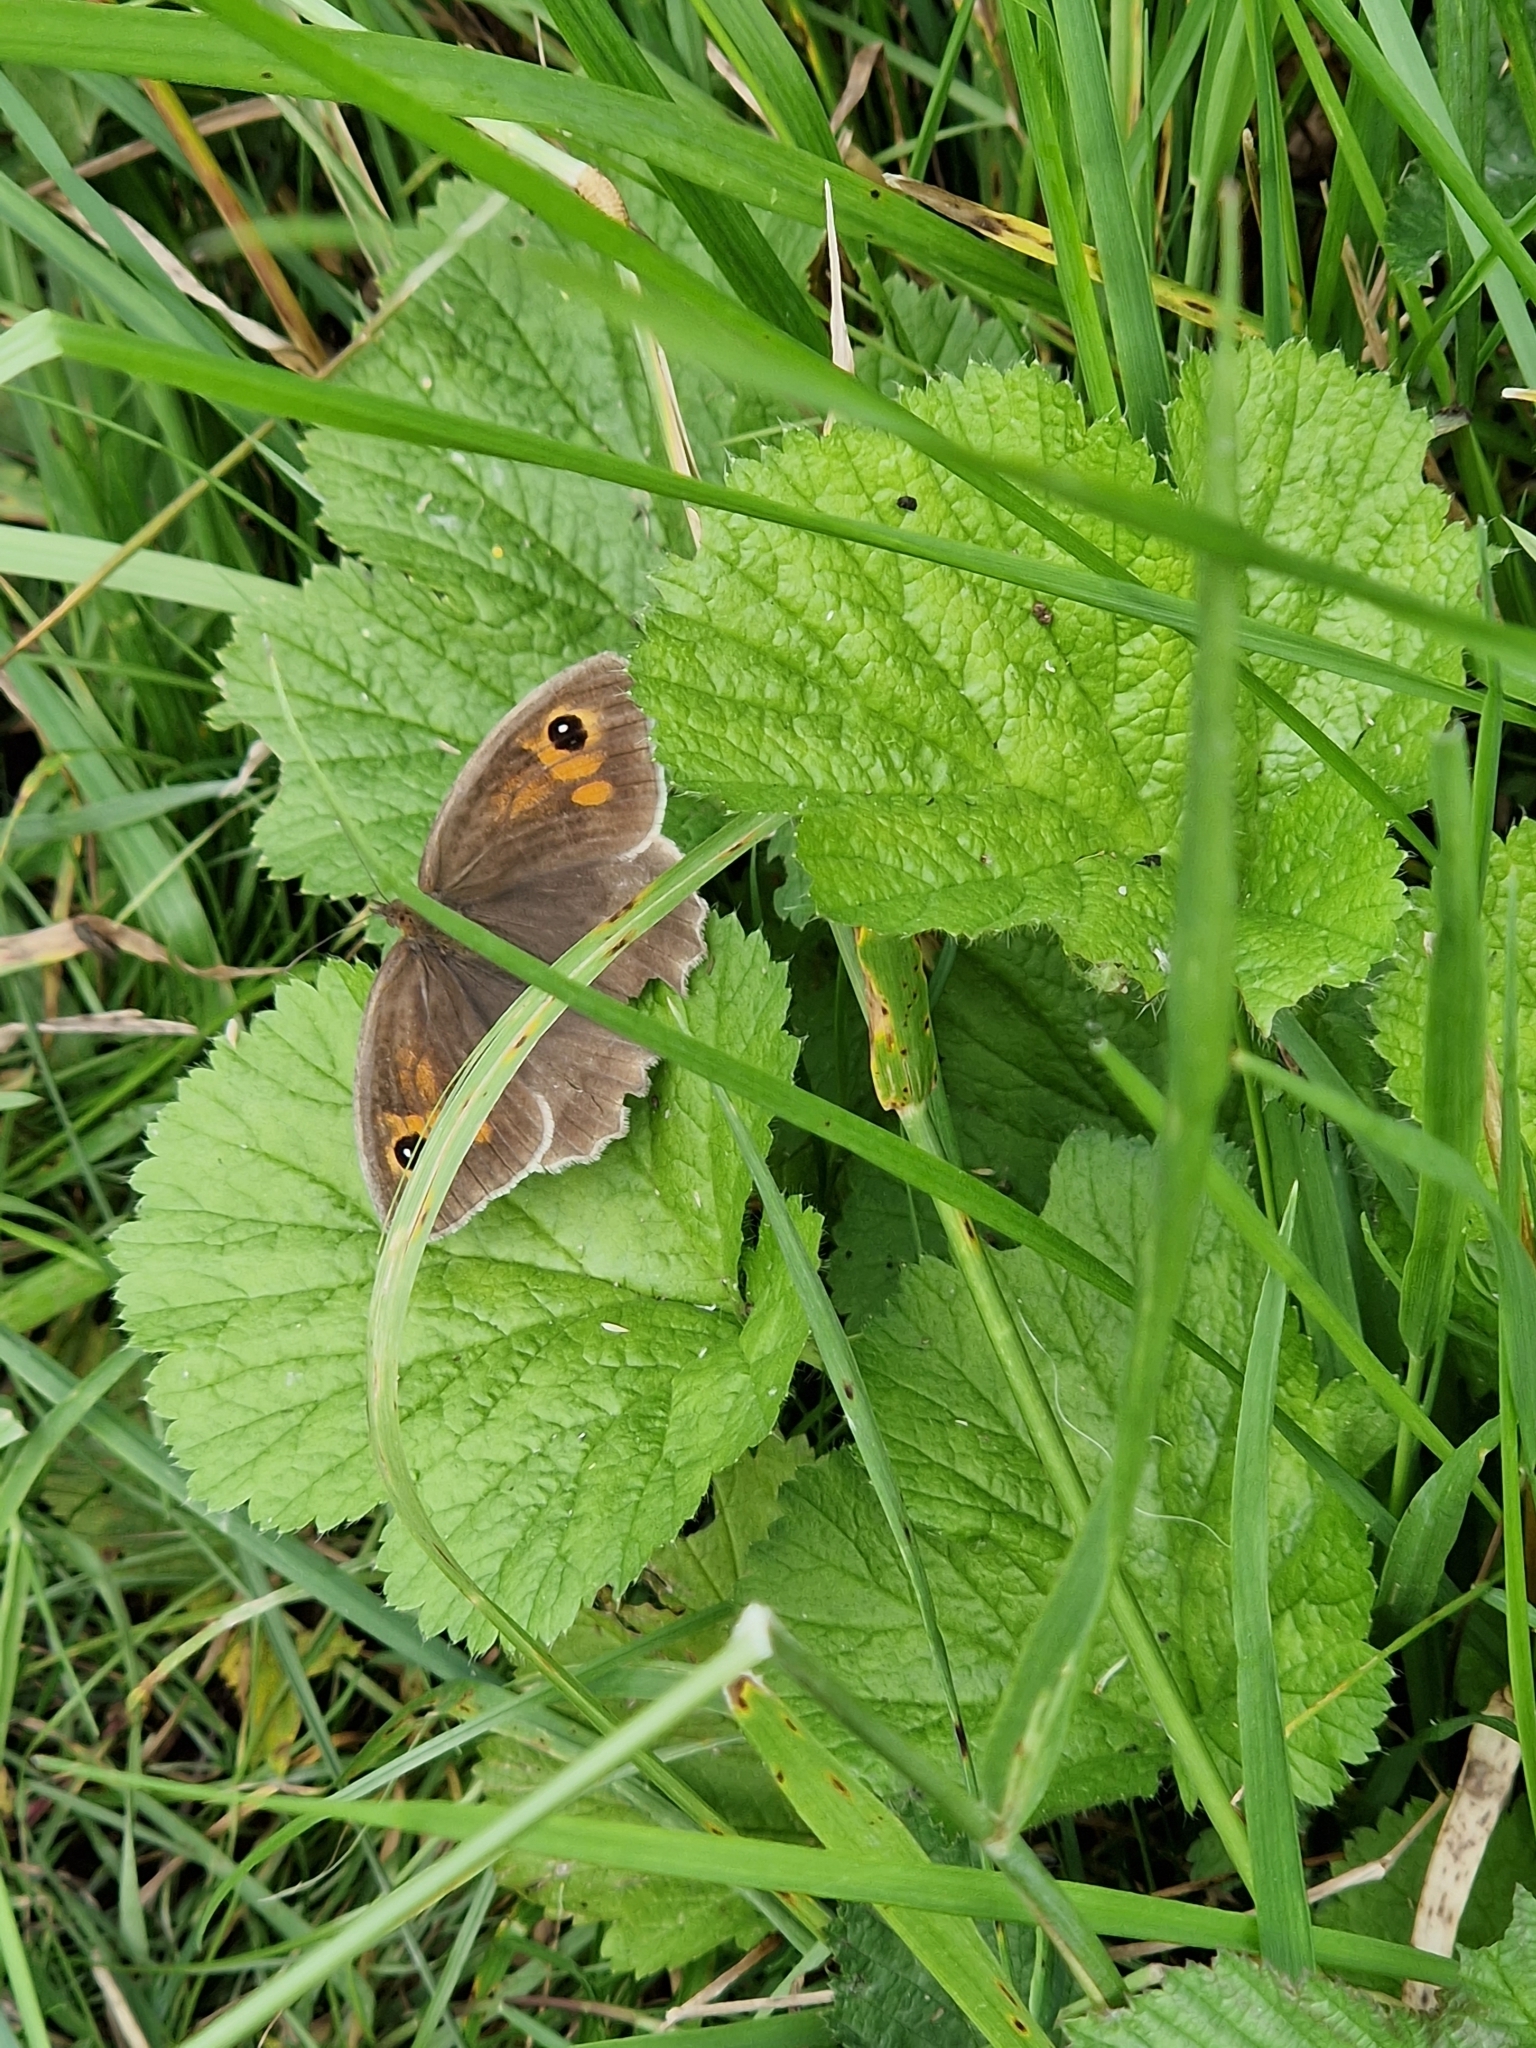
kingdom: Animalia
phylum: Arthropoda
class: Insecta
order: Lepidoptera
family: Nymphalidae
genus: Maniola
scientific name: Maniola jurtina
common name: Meadow brown
